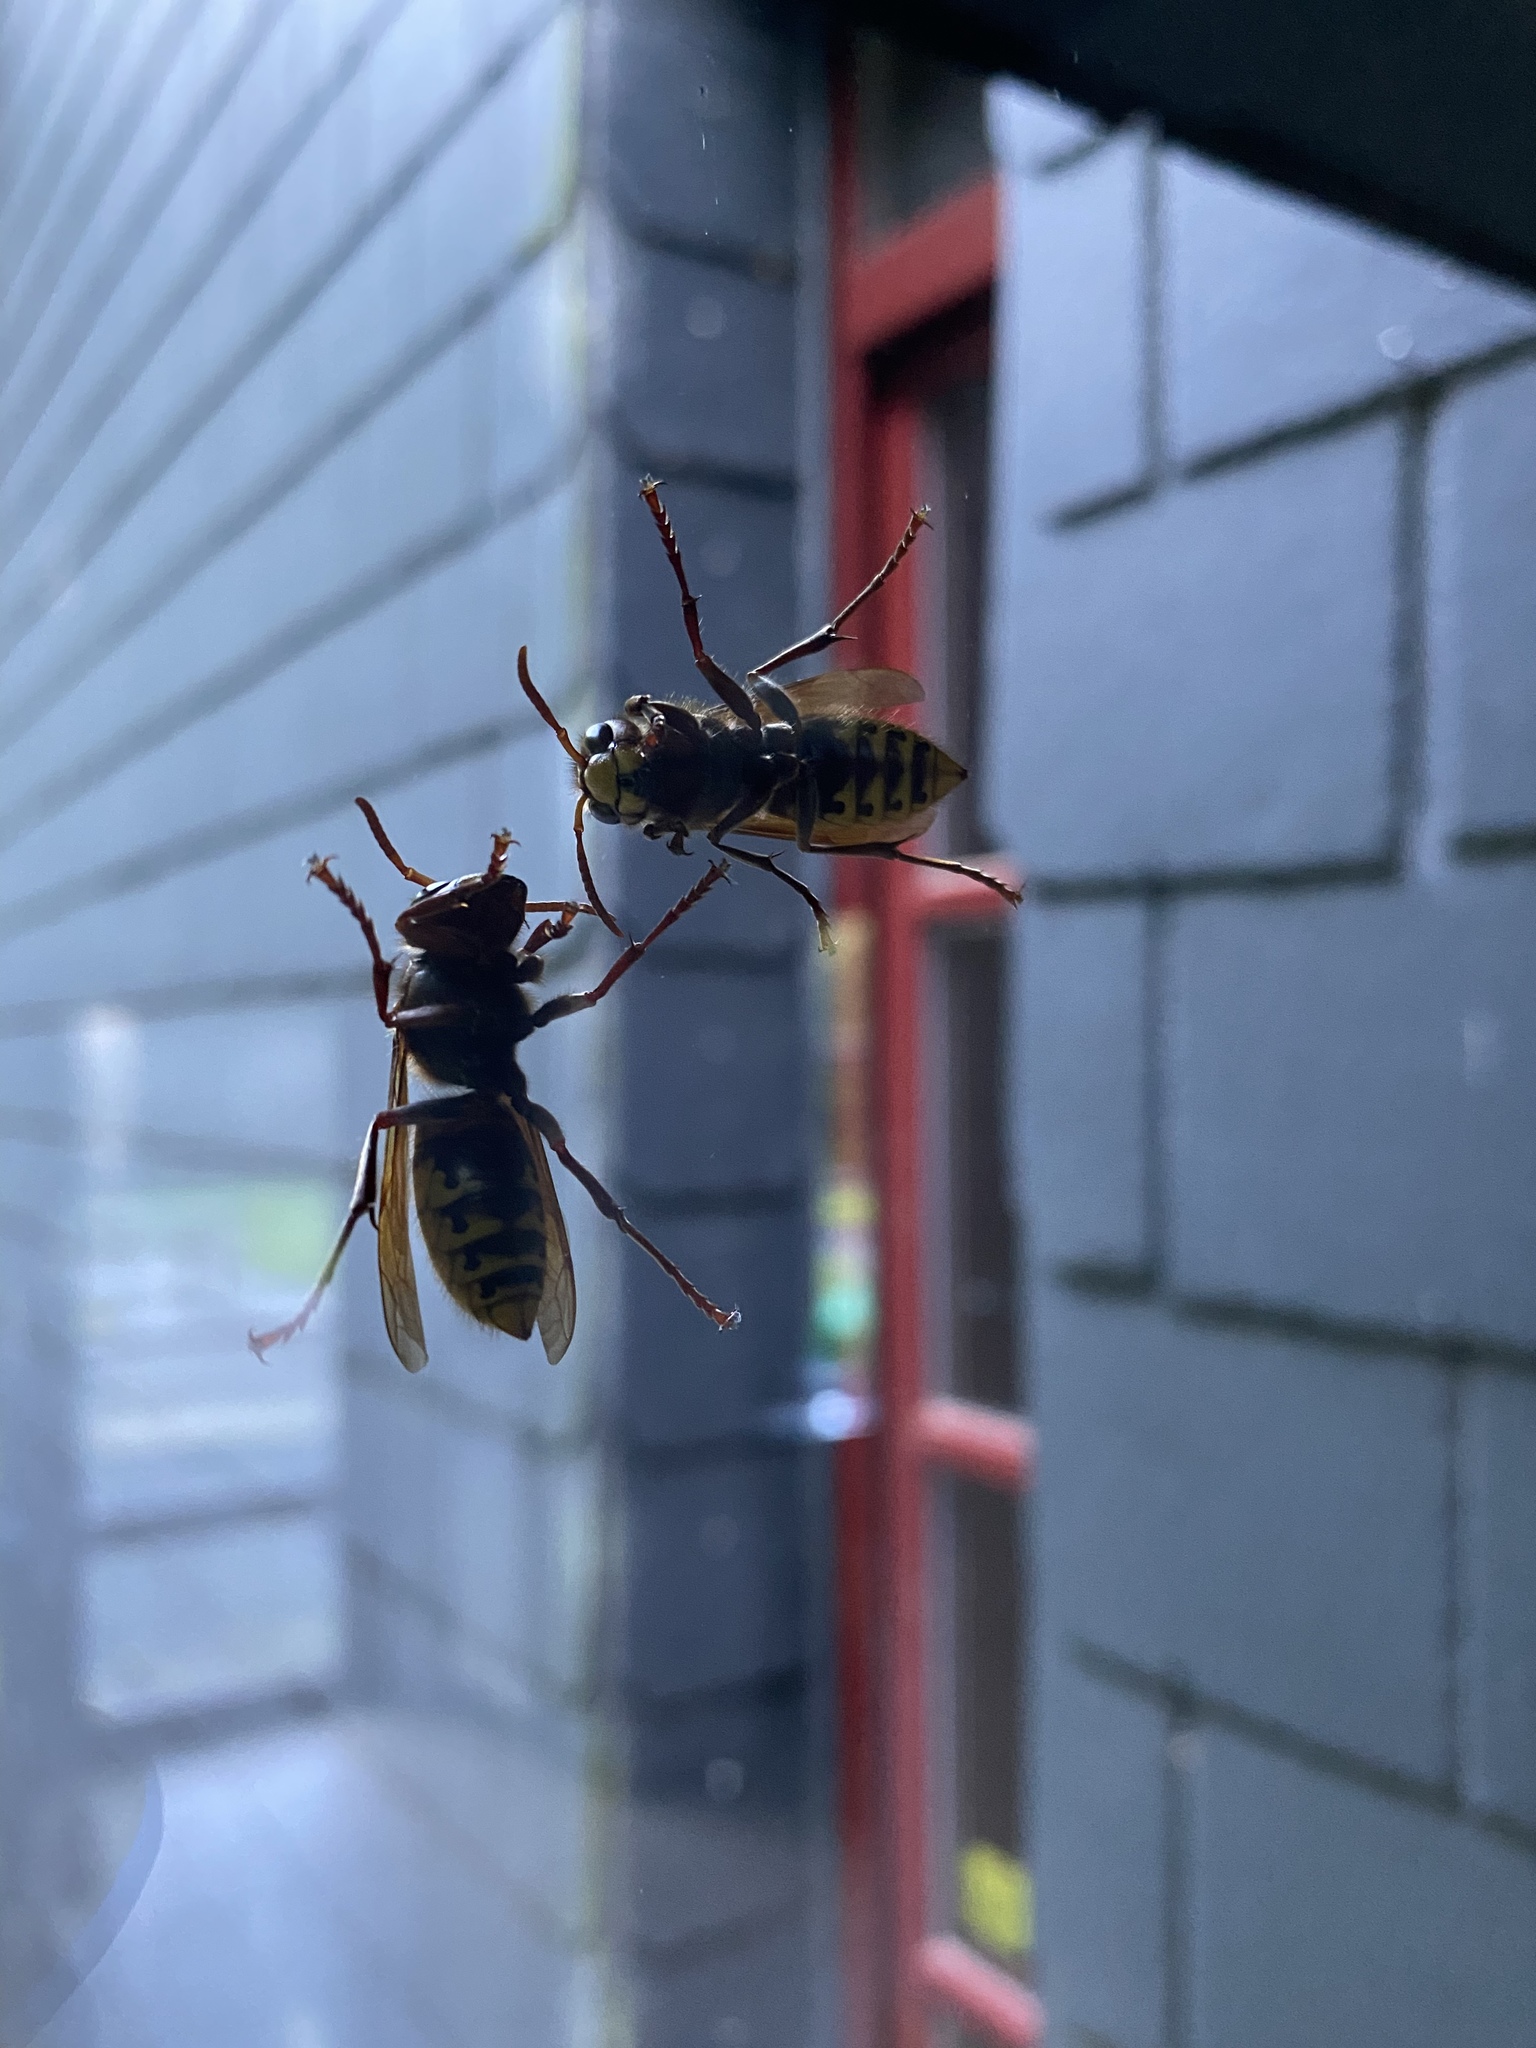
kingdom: Animalia
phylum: Arthropoda
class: Insecta
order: Hymenoptera
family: Vespidae
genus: Vespa
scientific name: Vespa crabro
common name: Hornet
